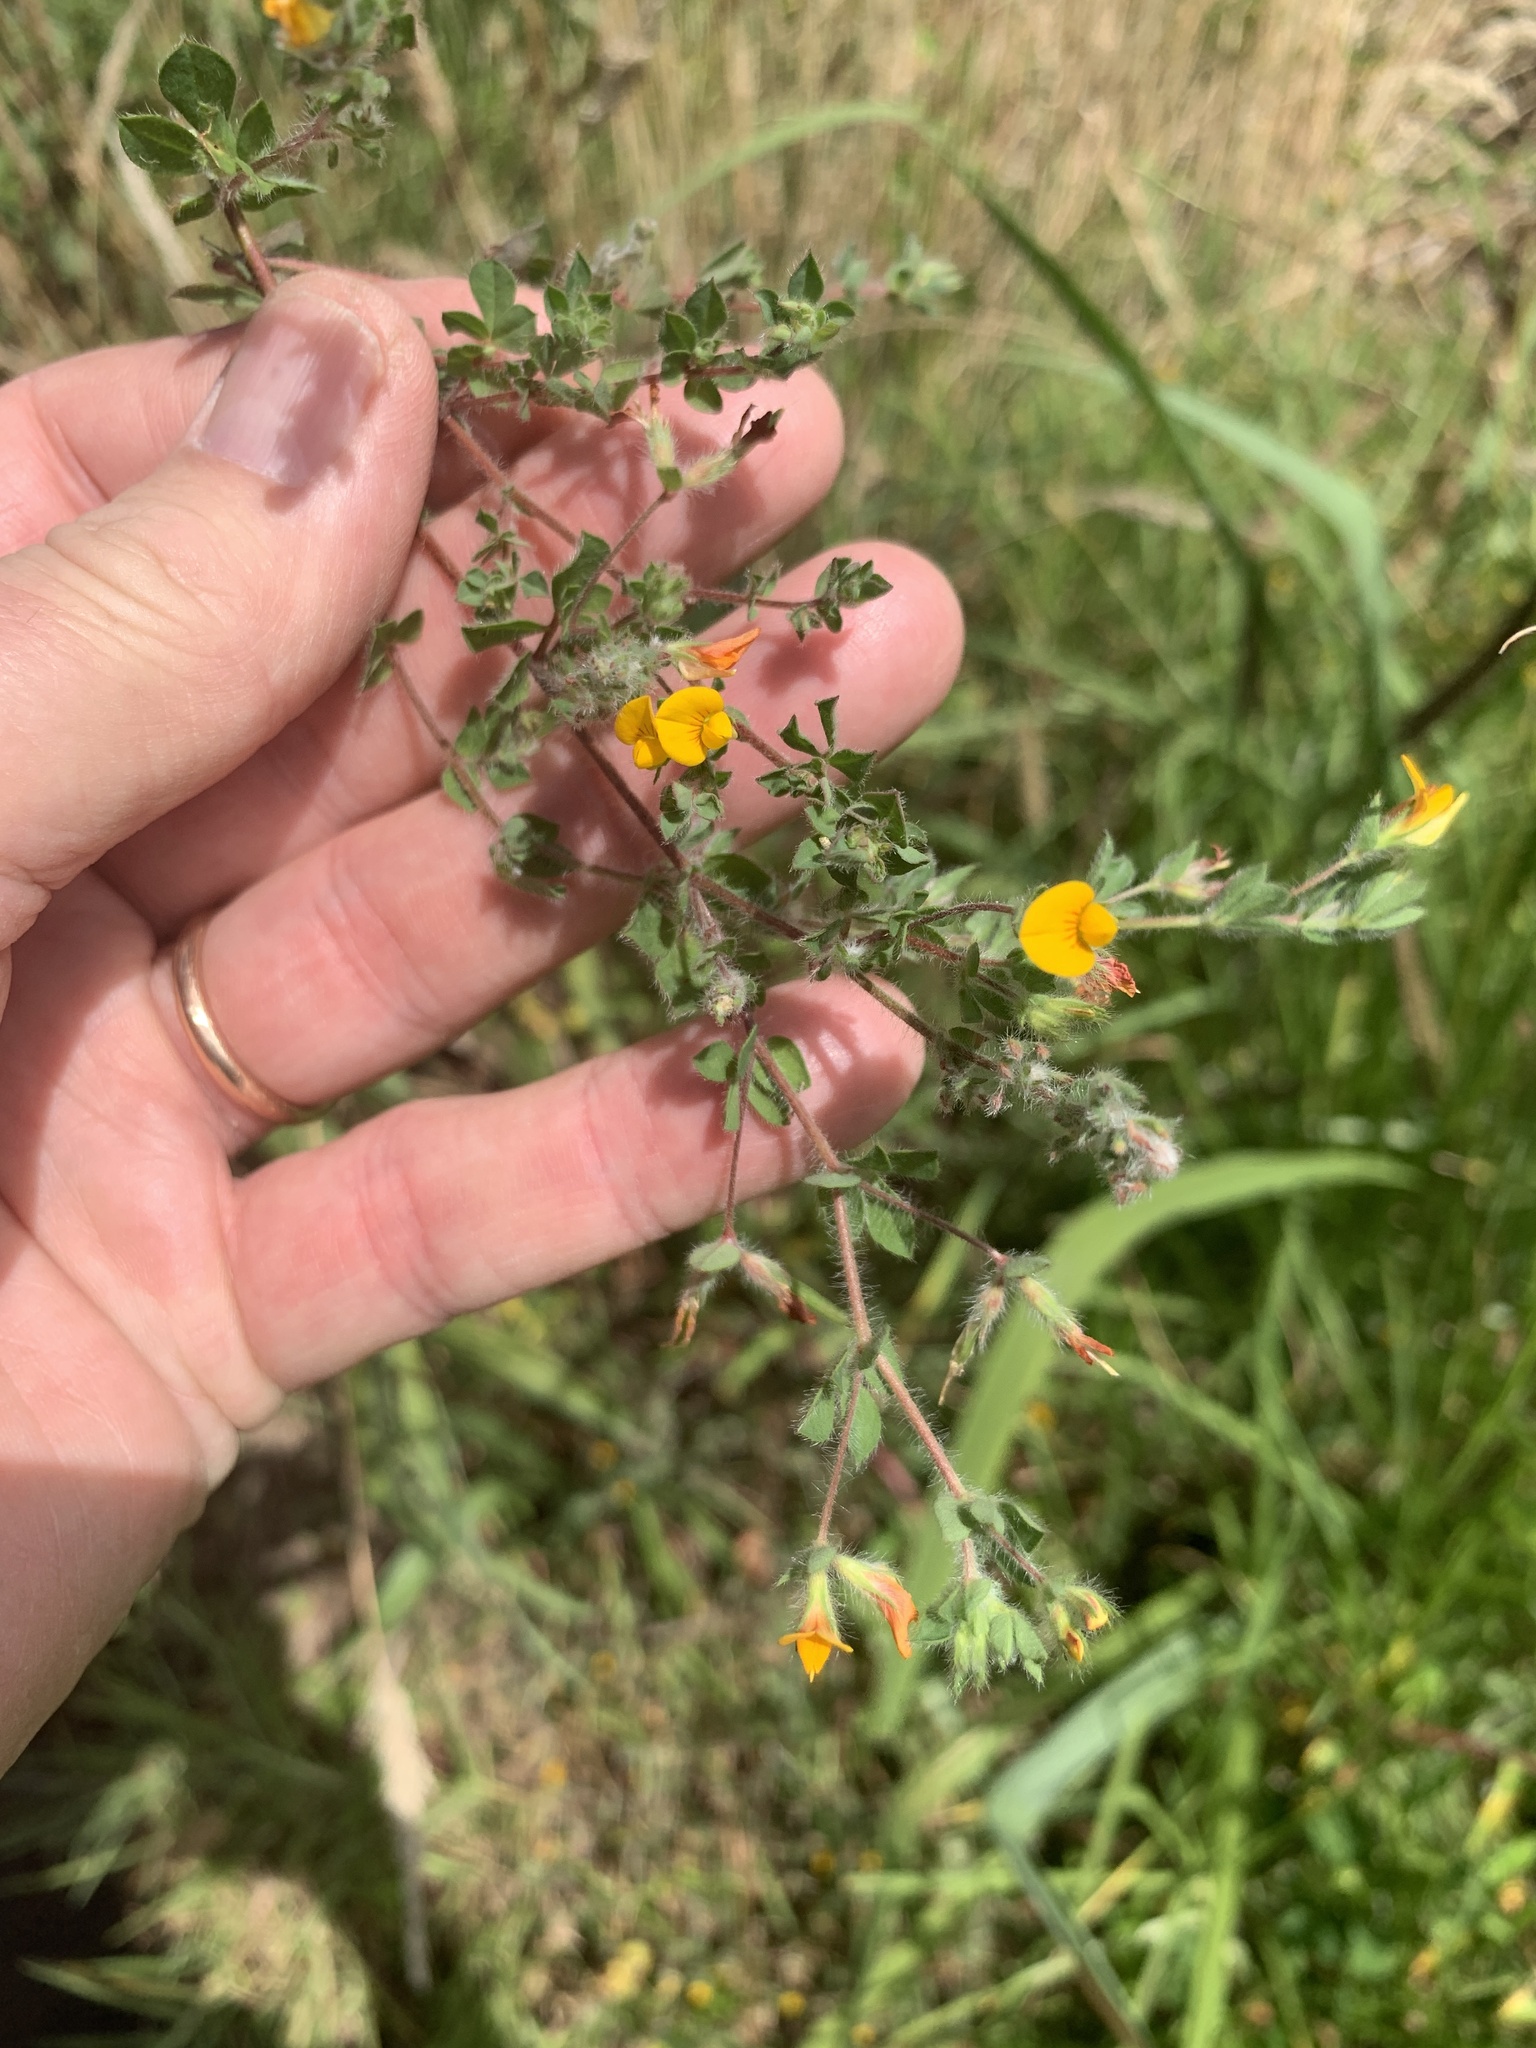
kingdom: Plantae
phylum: Tracheophyta
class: Magnoliopsida
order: Fabales
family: Fabaceae
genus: Lotus
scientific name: Lotus subbiflorus
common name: Hairy bird's-foot trefoil
